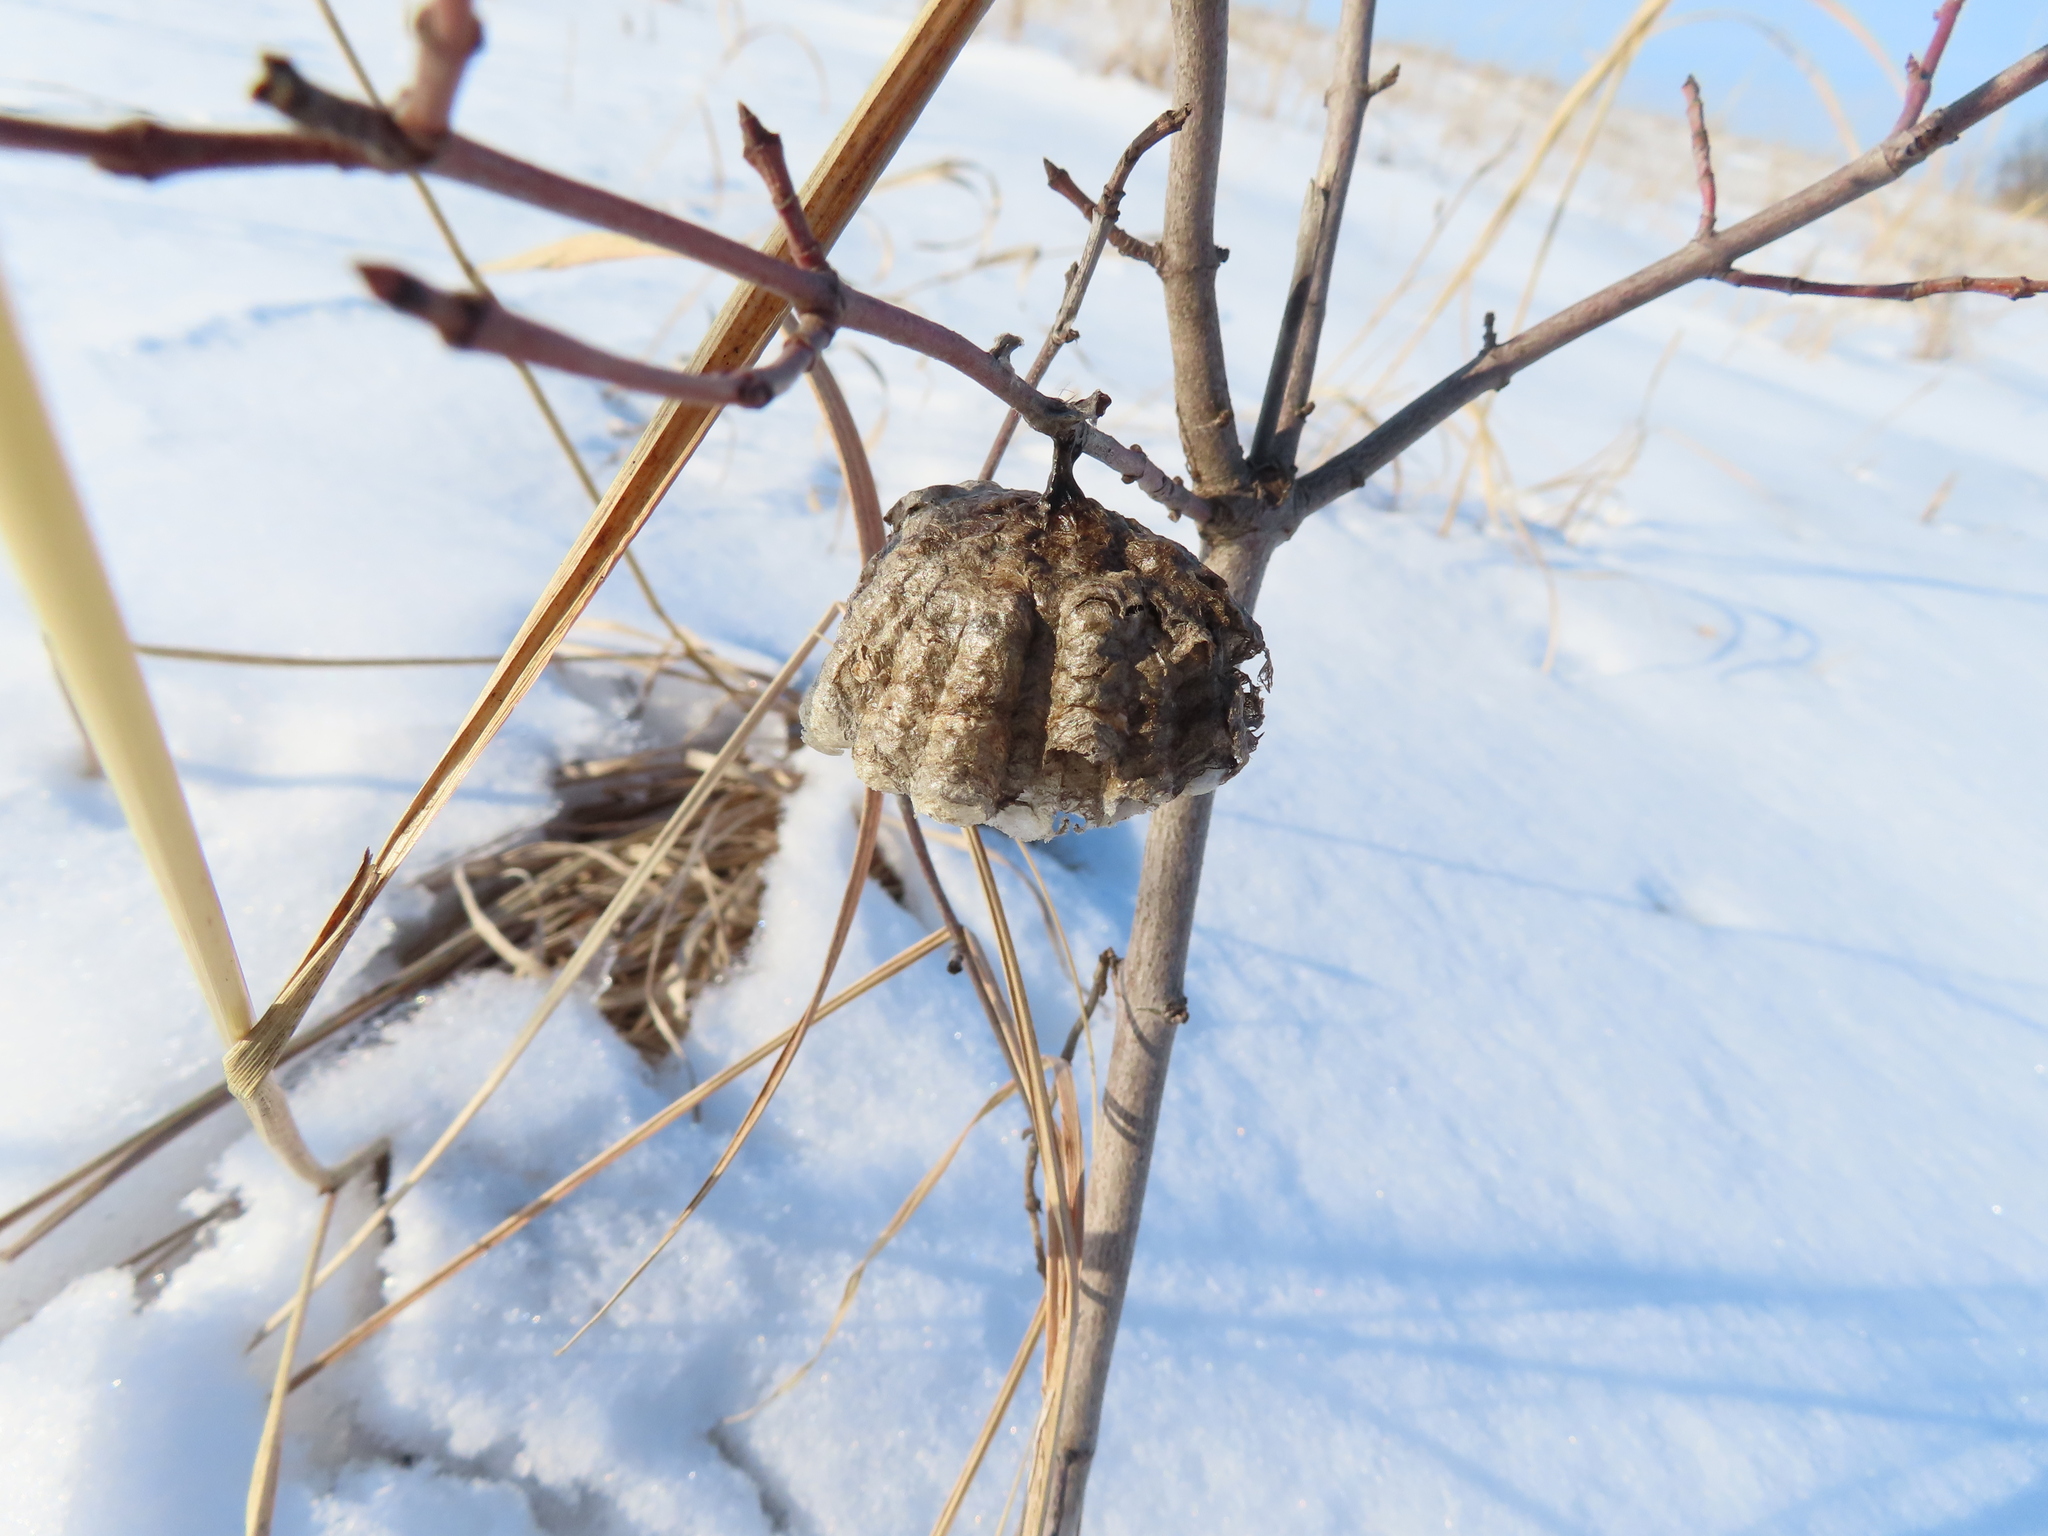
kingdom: Animalia
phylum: Arthropoda
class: Insecta
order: Hymenoptera
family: Eumenidae
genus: Polistes
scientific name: Polistes
